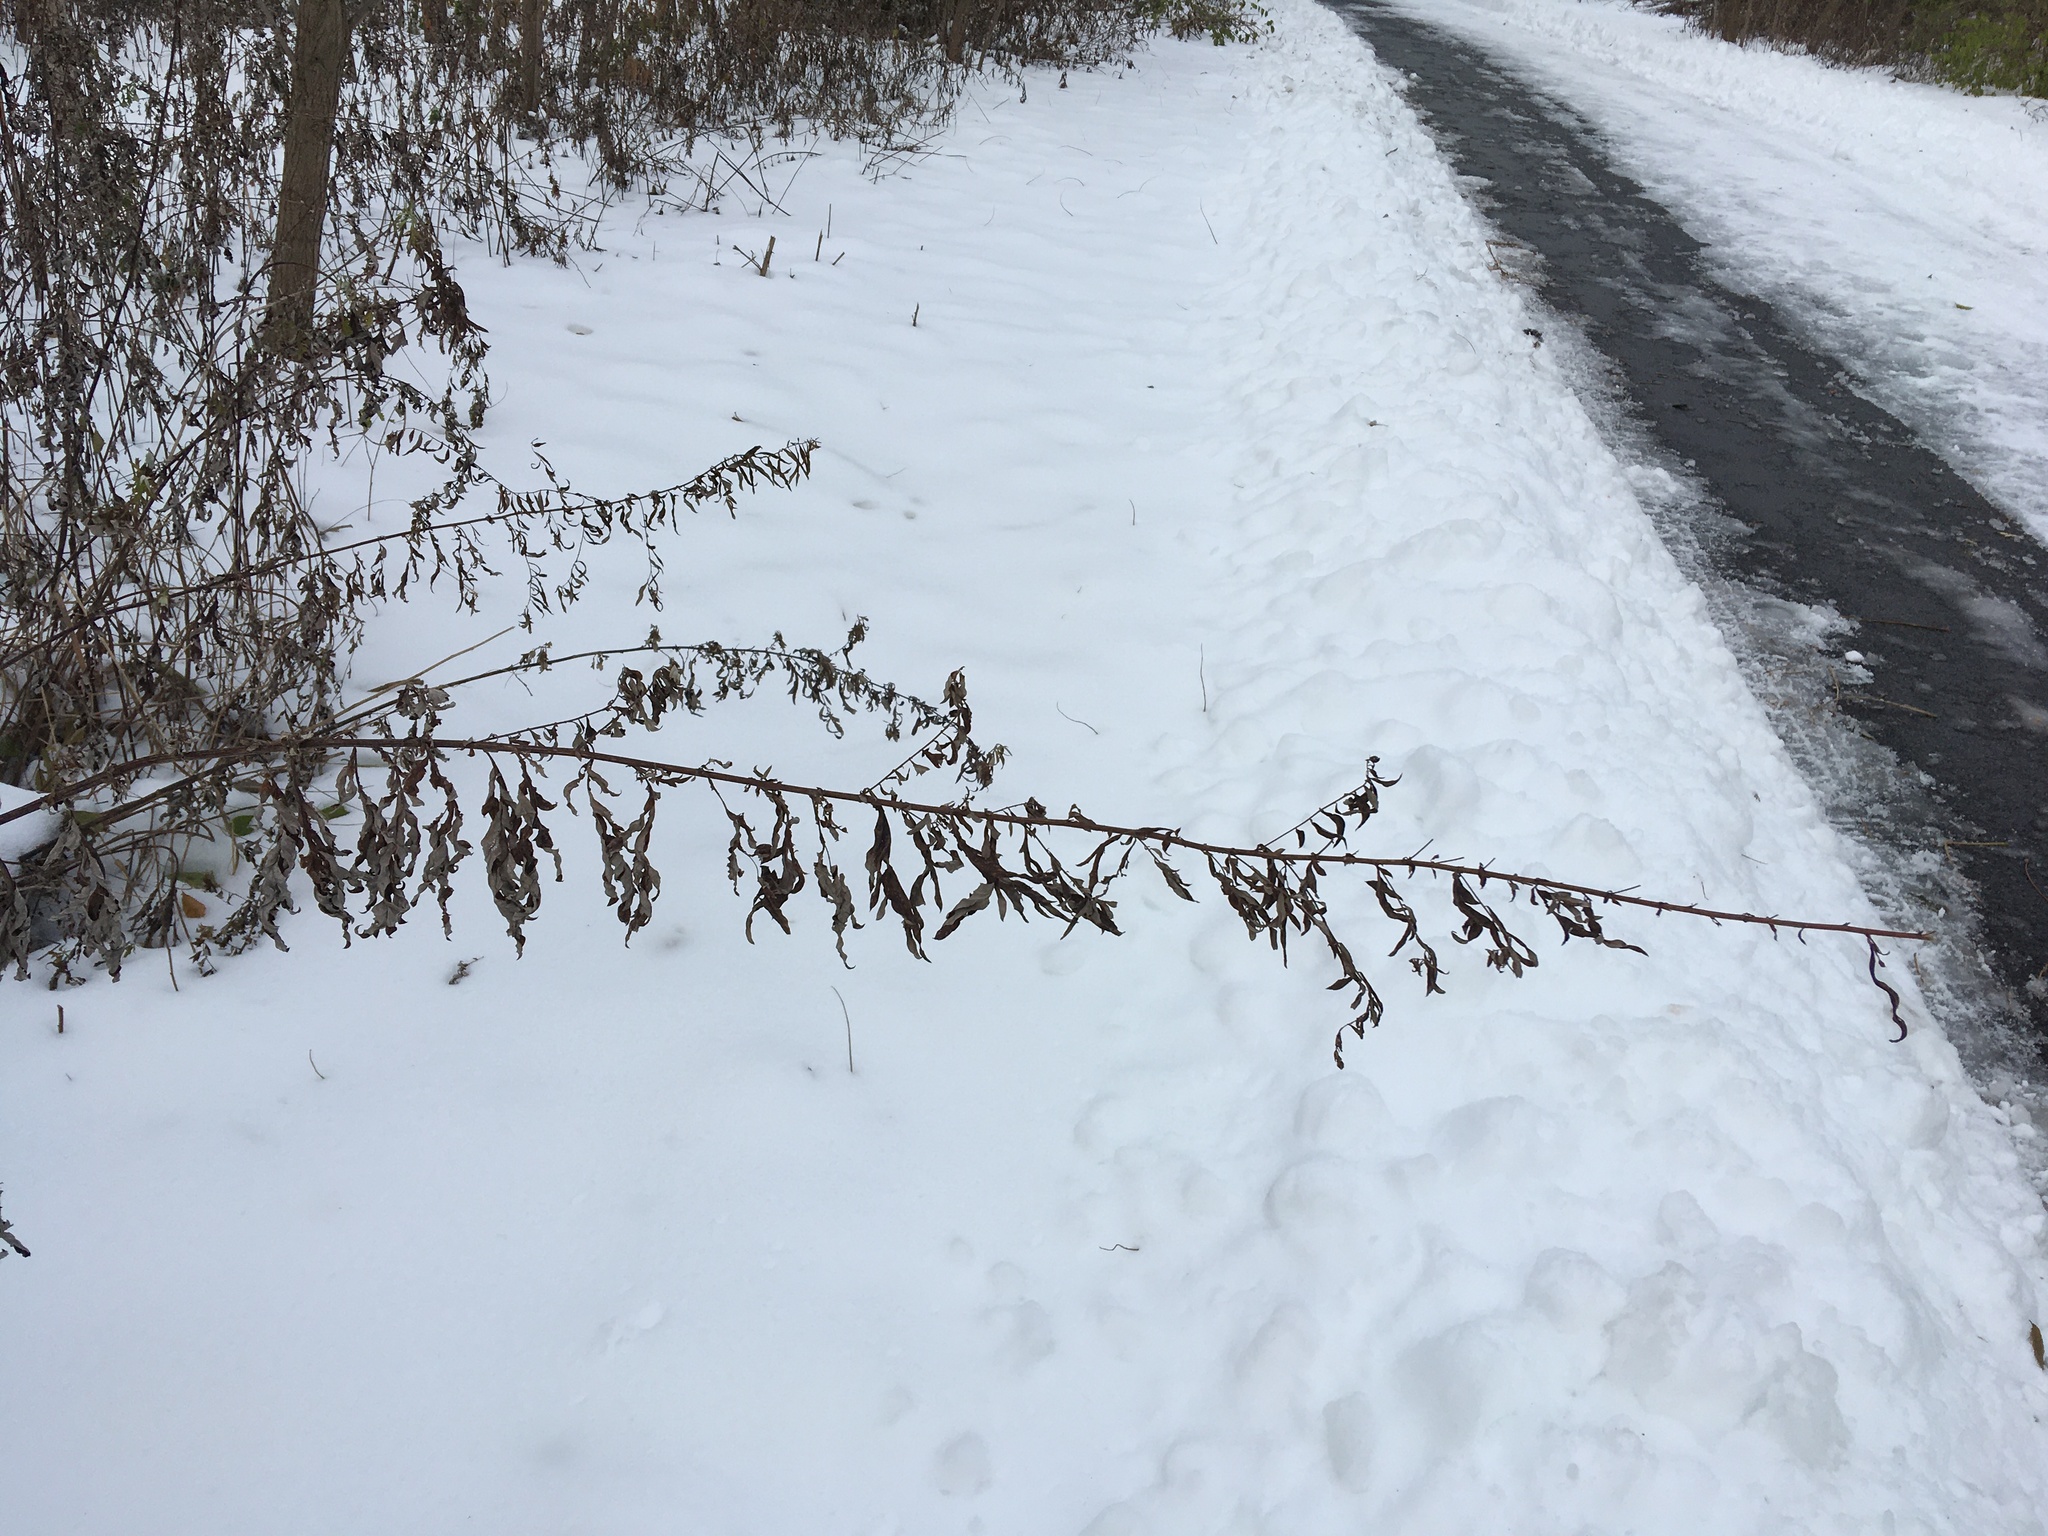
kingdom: Plantae
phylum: Tracheophyta
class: Magnoliopsida
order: Asterales
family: Asteraceae
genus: Artemisia
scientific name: Artemisia vulgaris
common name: Mugwort
